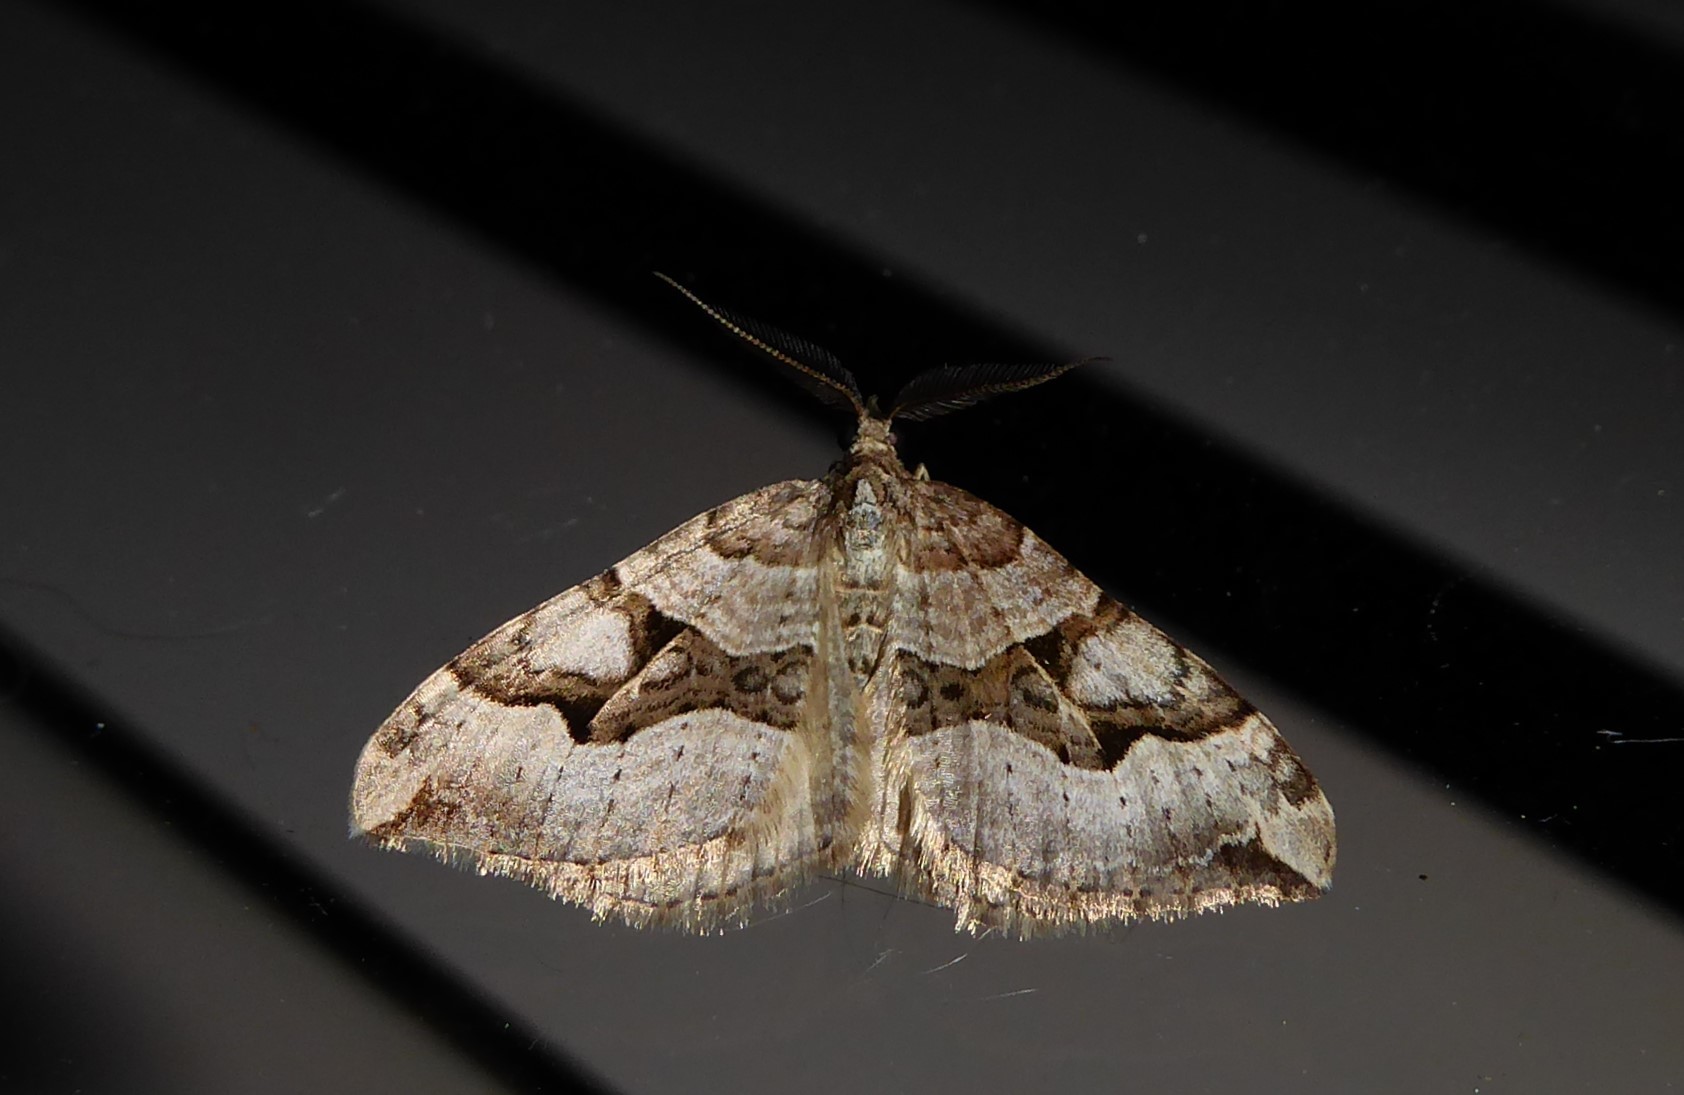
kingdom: Animalia
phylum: Arthropoda
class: Insecta
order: Lepidoptera
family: Geometridae
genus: Xanthorhoe
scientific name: Xanthorhoe semifissata
